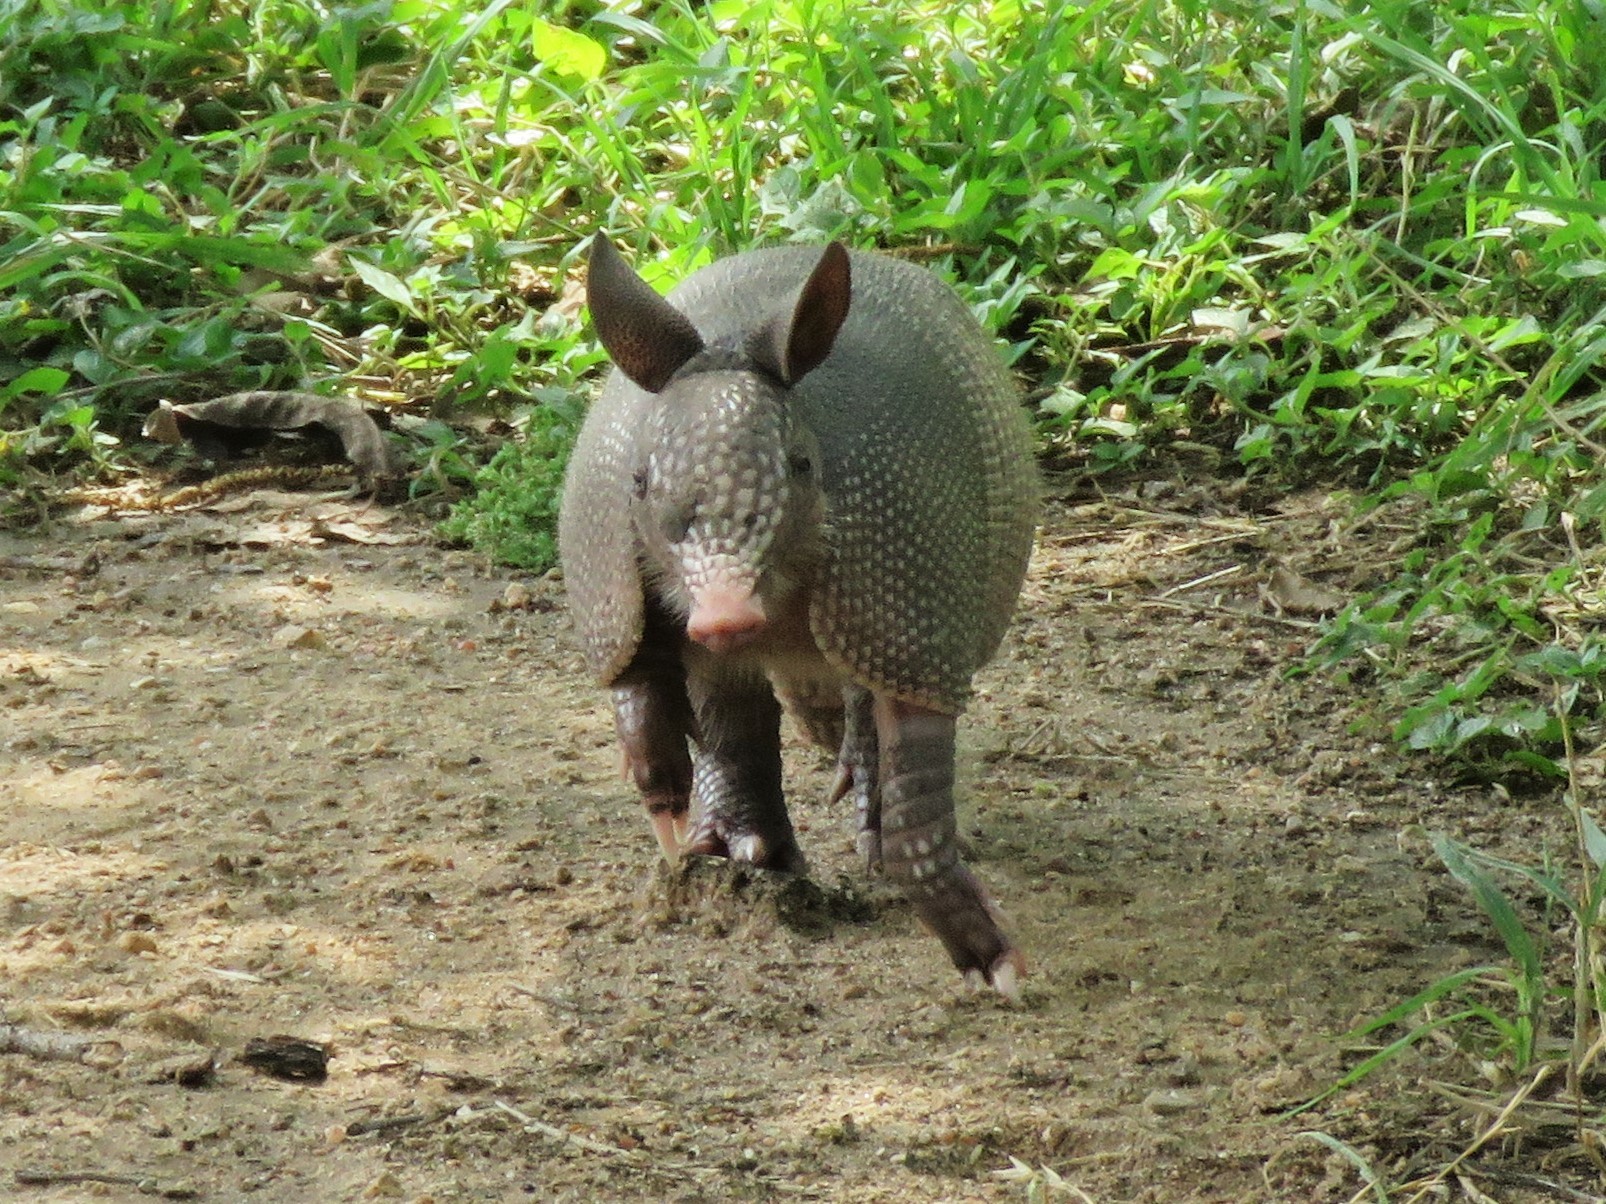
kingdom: Animalia
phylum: Chordata
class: Mammalia
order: Cingulata
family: Dasypodidae
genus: Dasypus
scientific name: Dasypus novemcinctus
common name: Nine-banded armadillo
